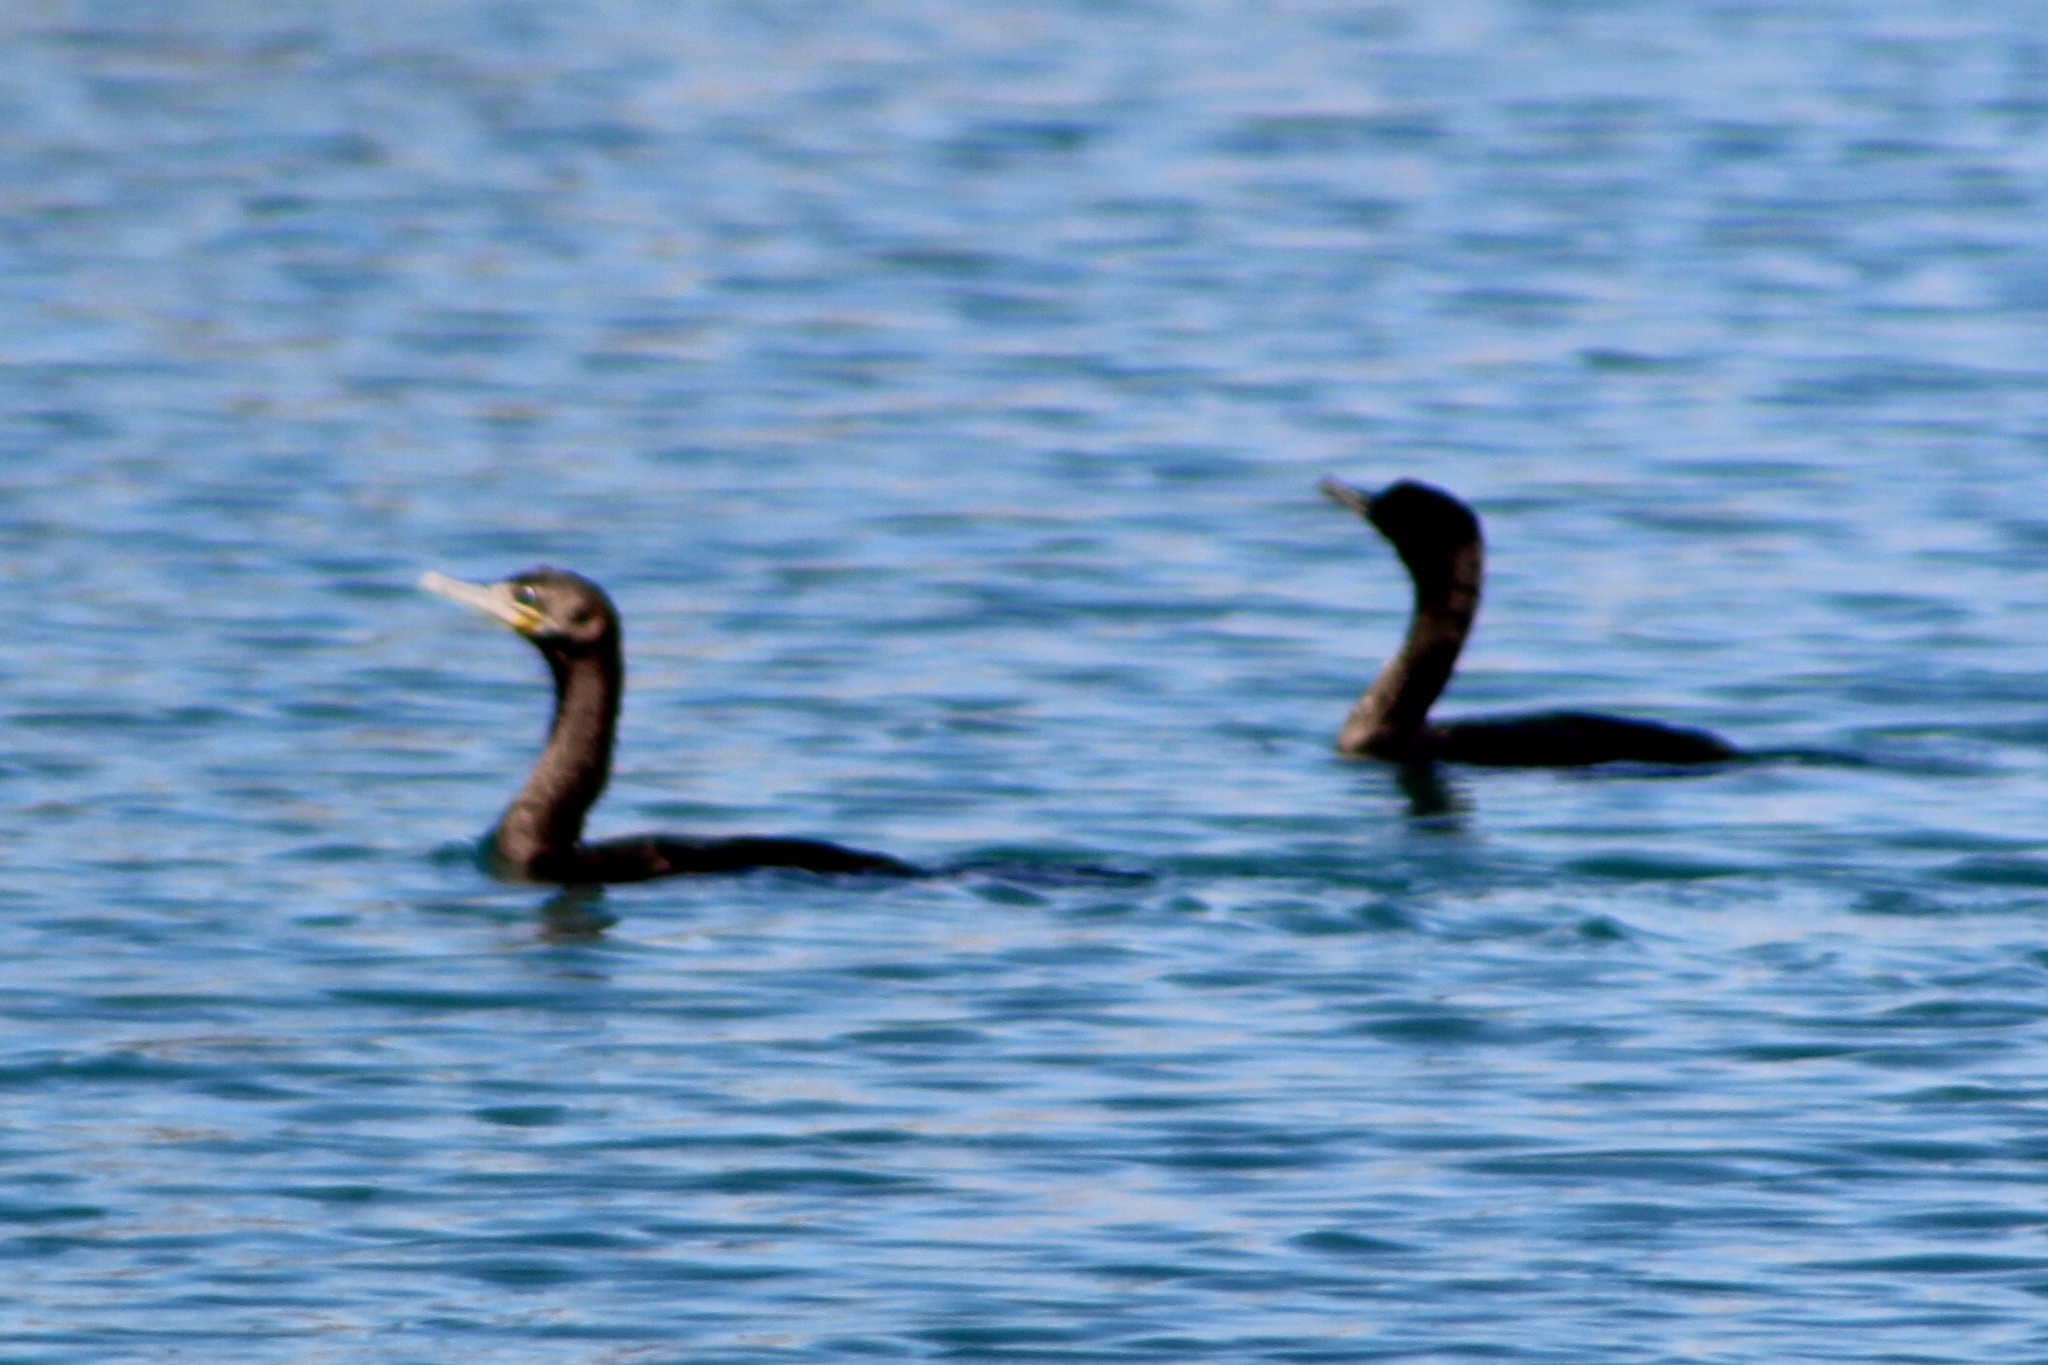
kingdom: Animalia
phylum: Chordata
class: Aves
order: Suliformes
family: Phalacrocoracidae
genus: Phalacrocorax
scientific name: Phalacrocorax brasilianus
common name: Neotropic cormorant
